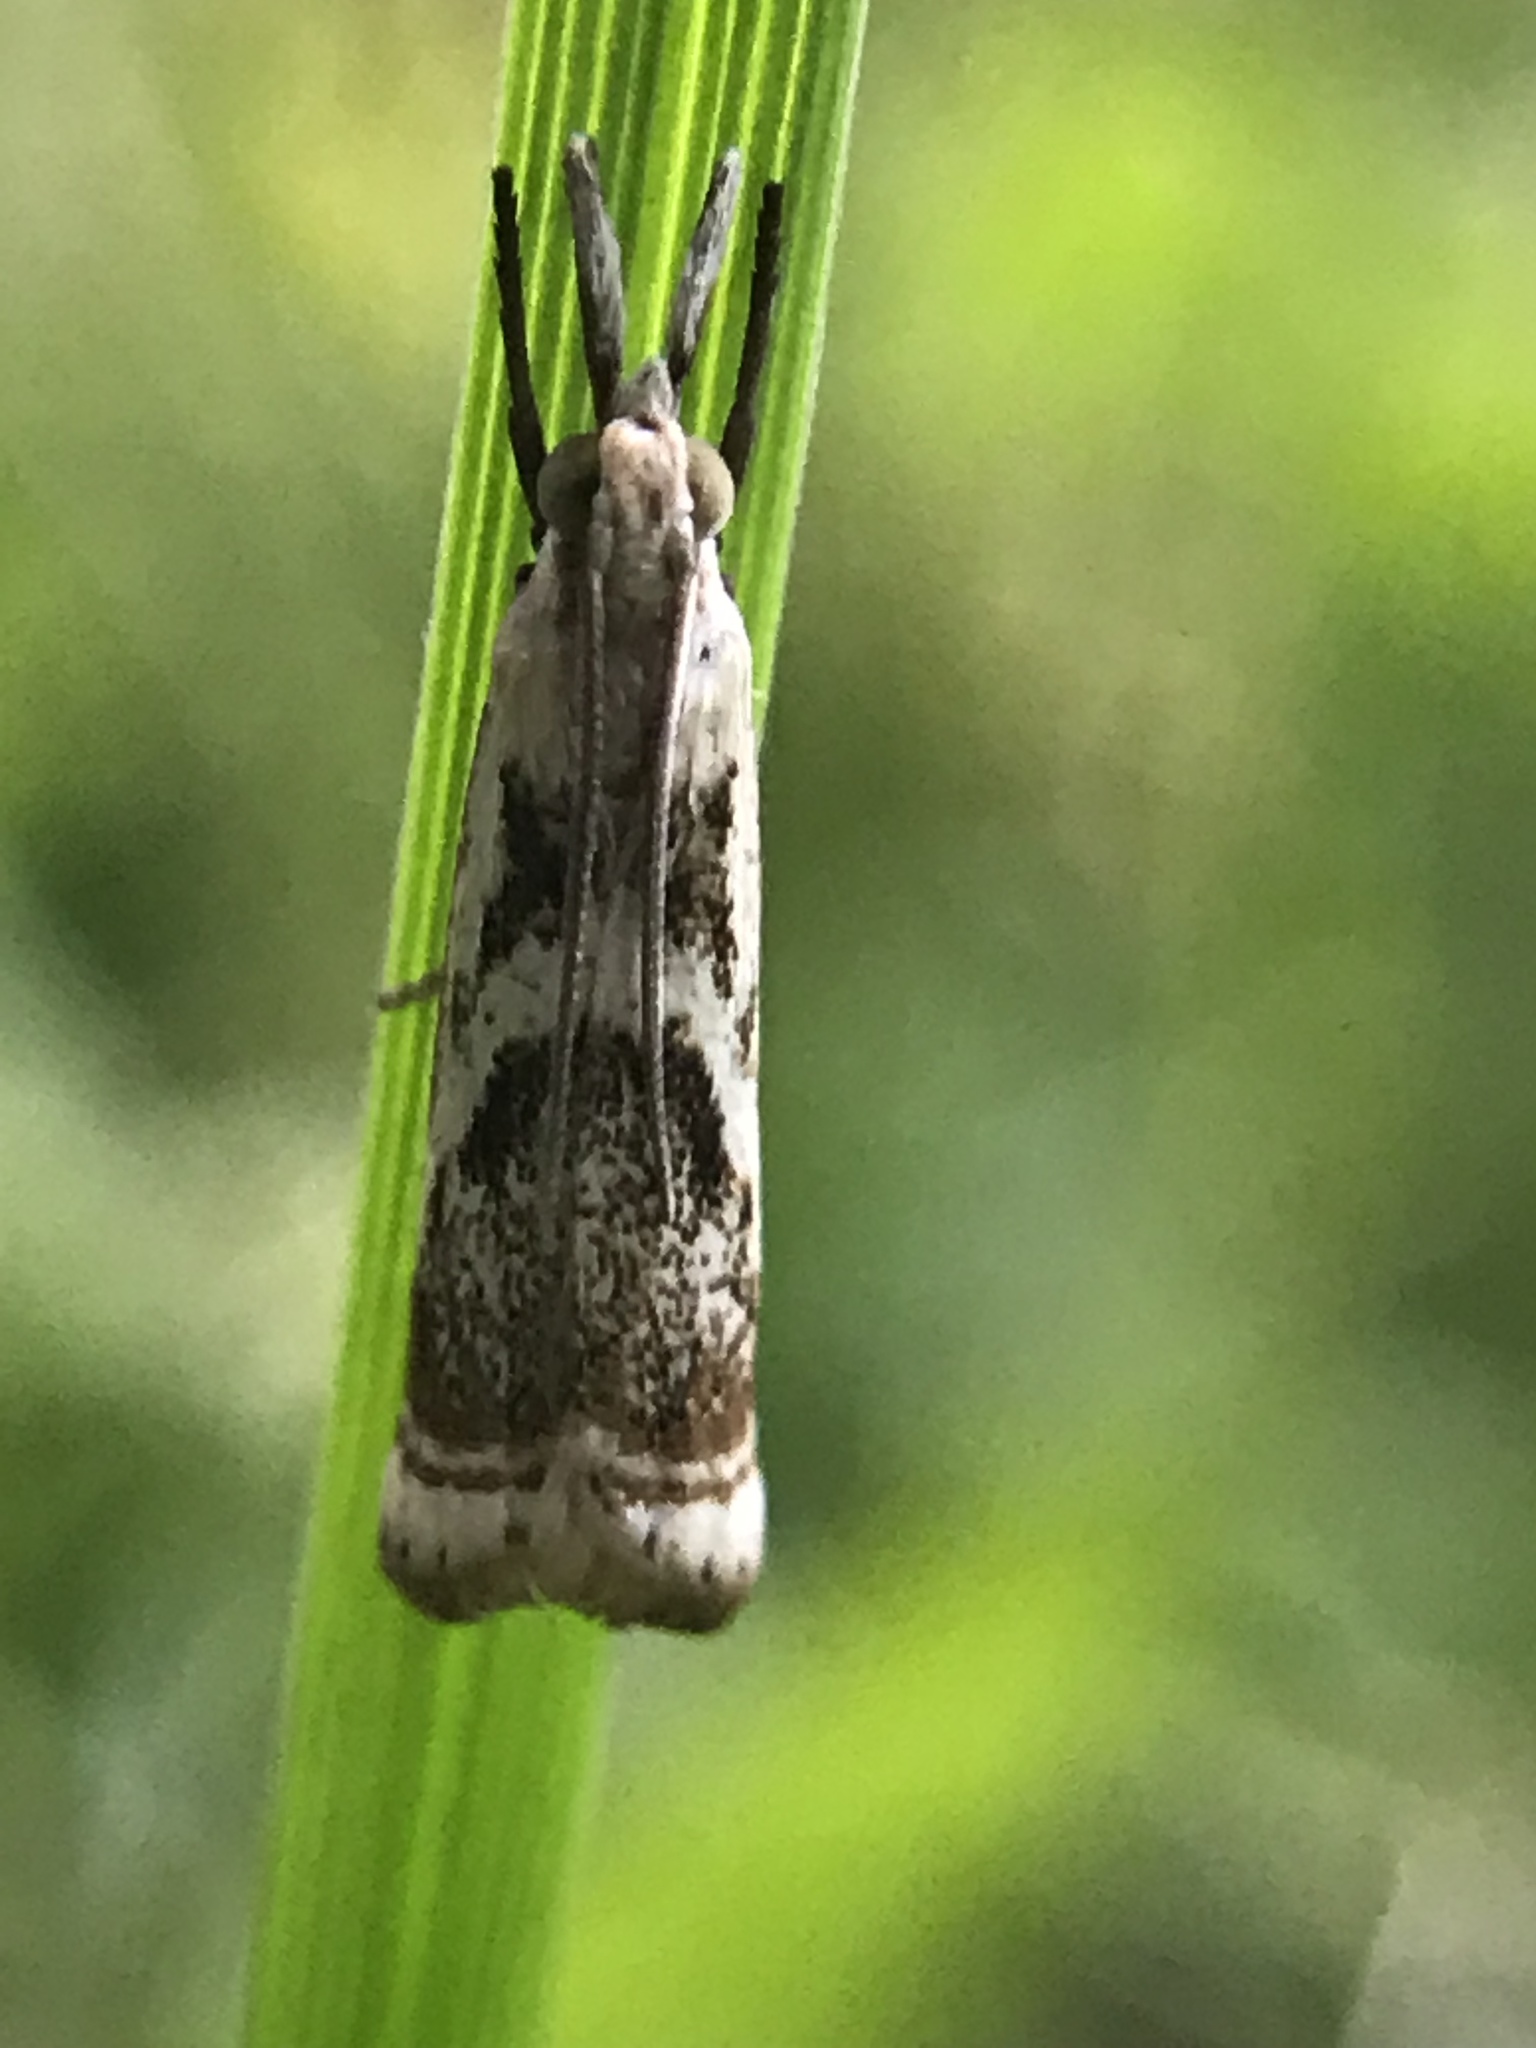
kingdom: Animalia
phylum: Arthropoda
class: Insecta
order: Lepidoptera
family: Crambidae
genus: Microcrambus
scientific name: Microcrambus elegans
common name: Elegant grass-veneer
